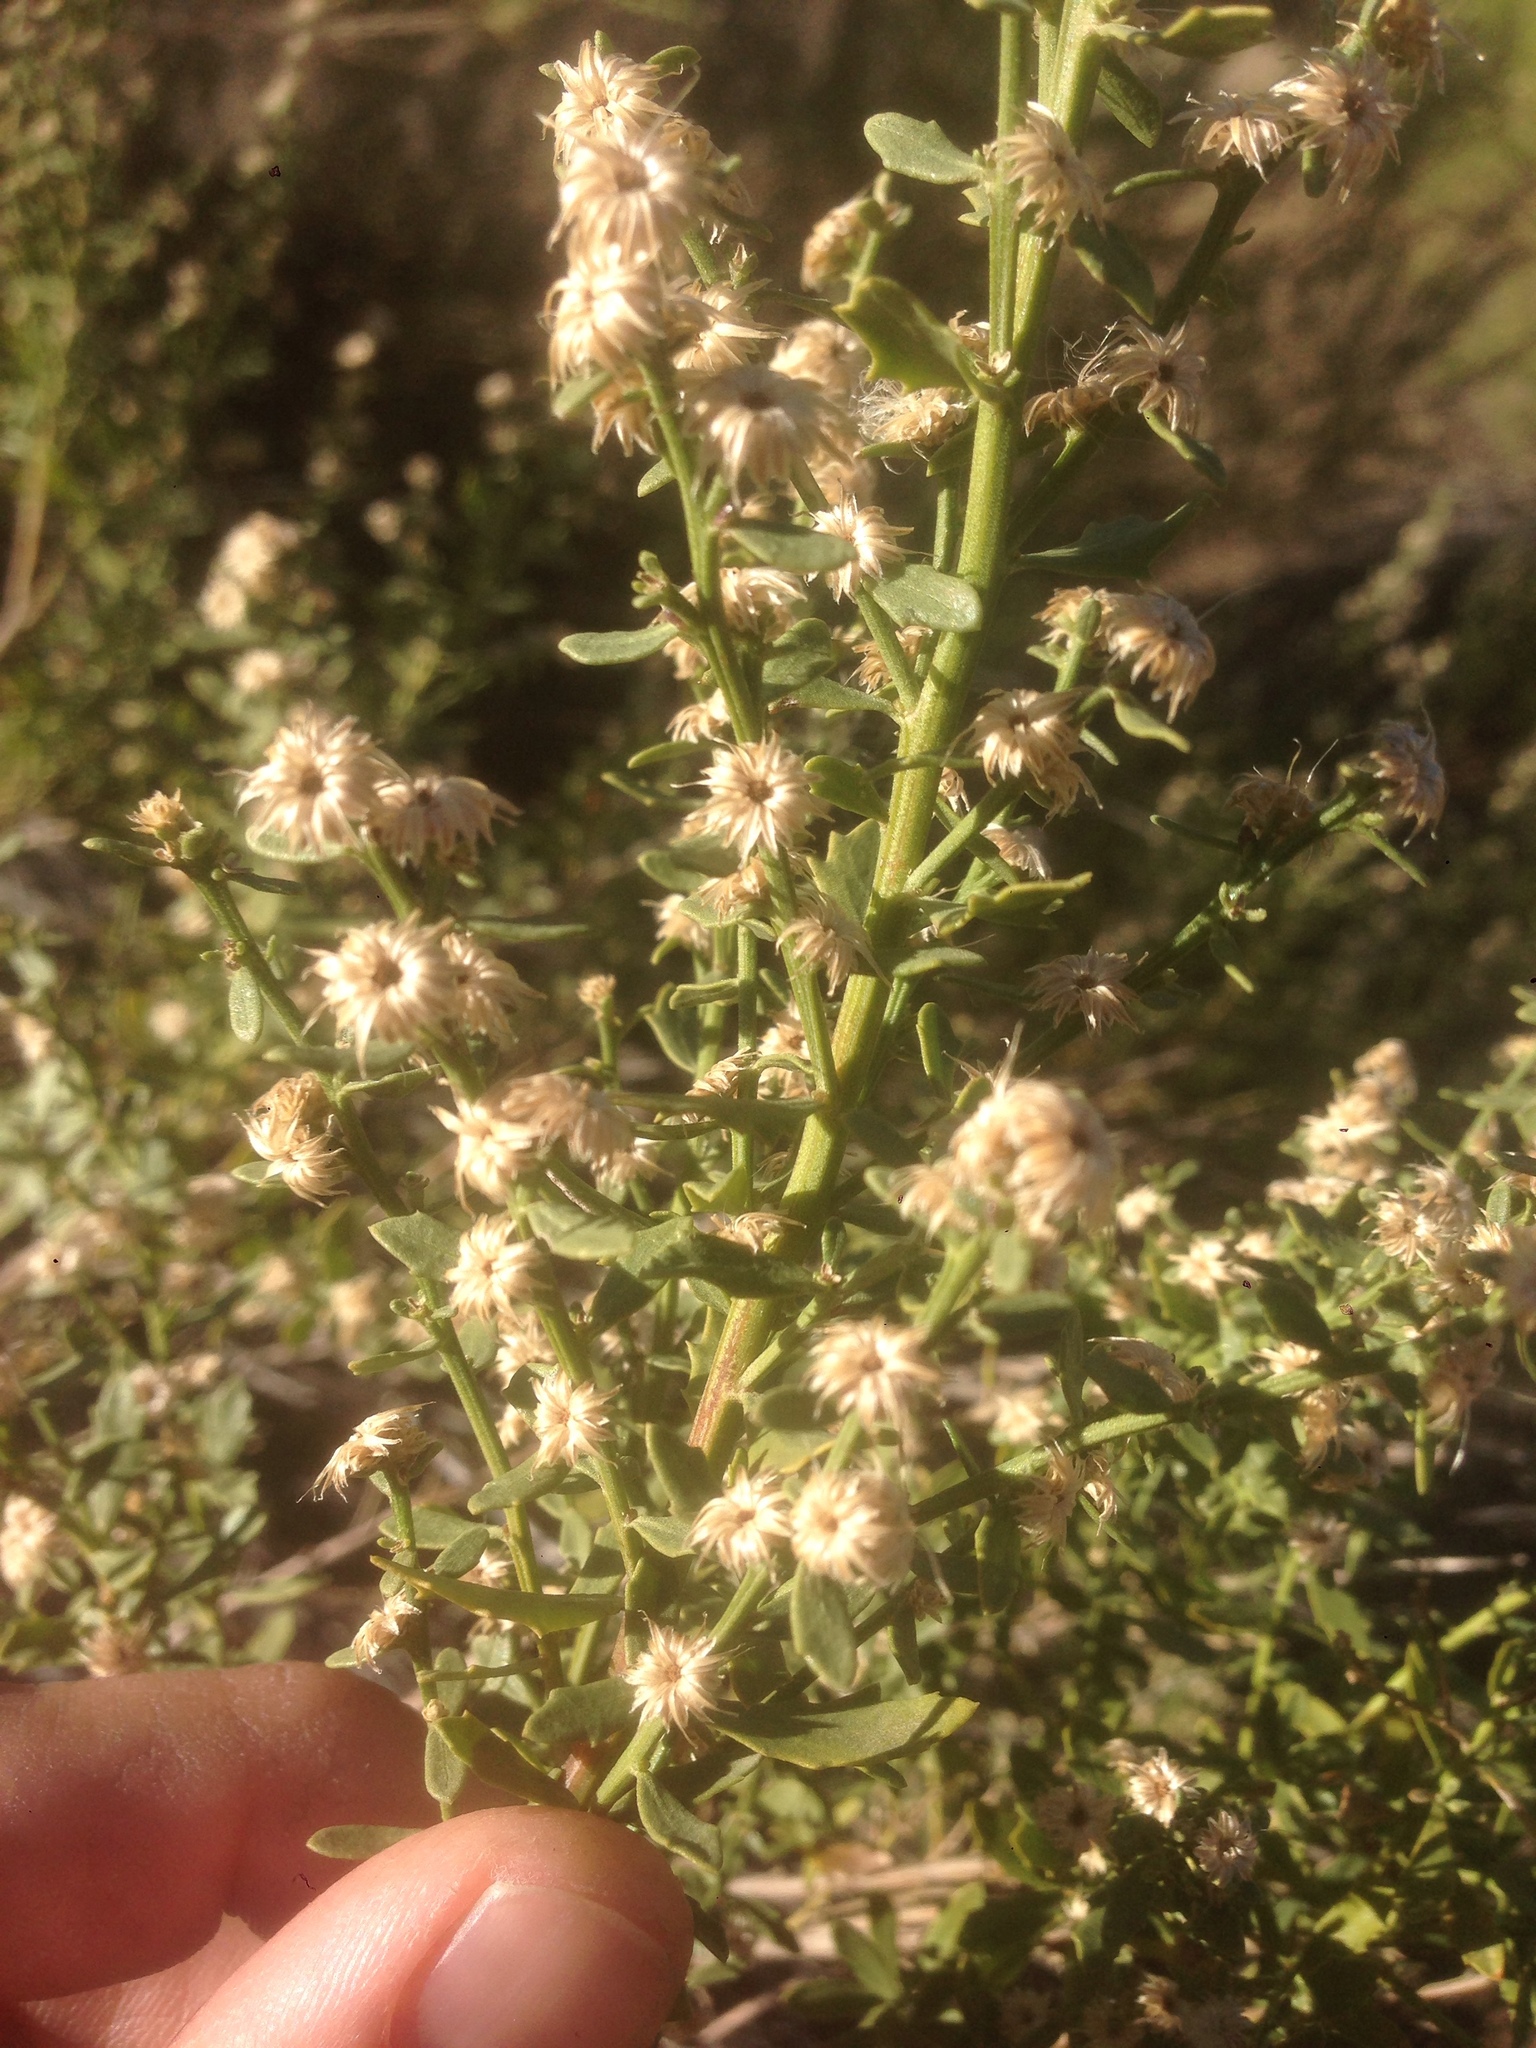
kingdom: Plantae
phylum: Tracheophyta
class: Magnoliopsida
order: Asterales
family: Asteraceae
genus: Baccharis
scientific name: Baccharis pilularis
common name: Coyotebrush
